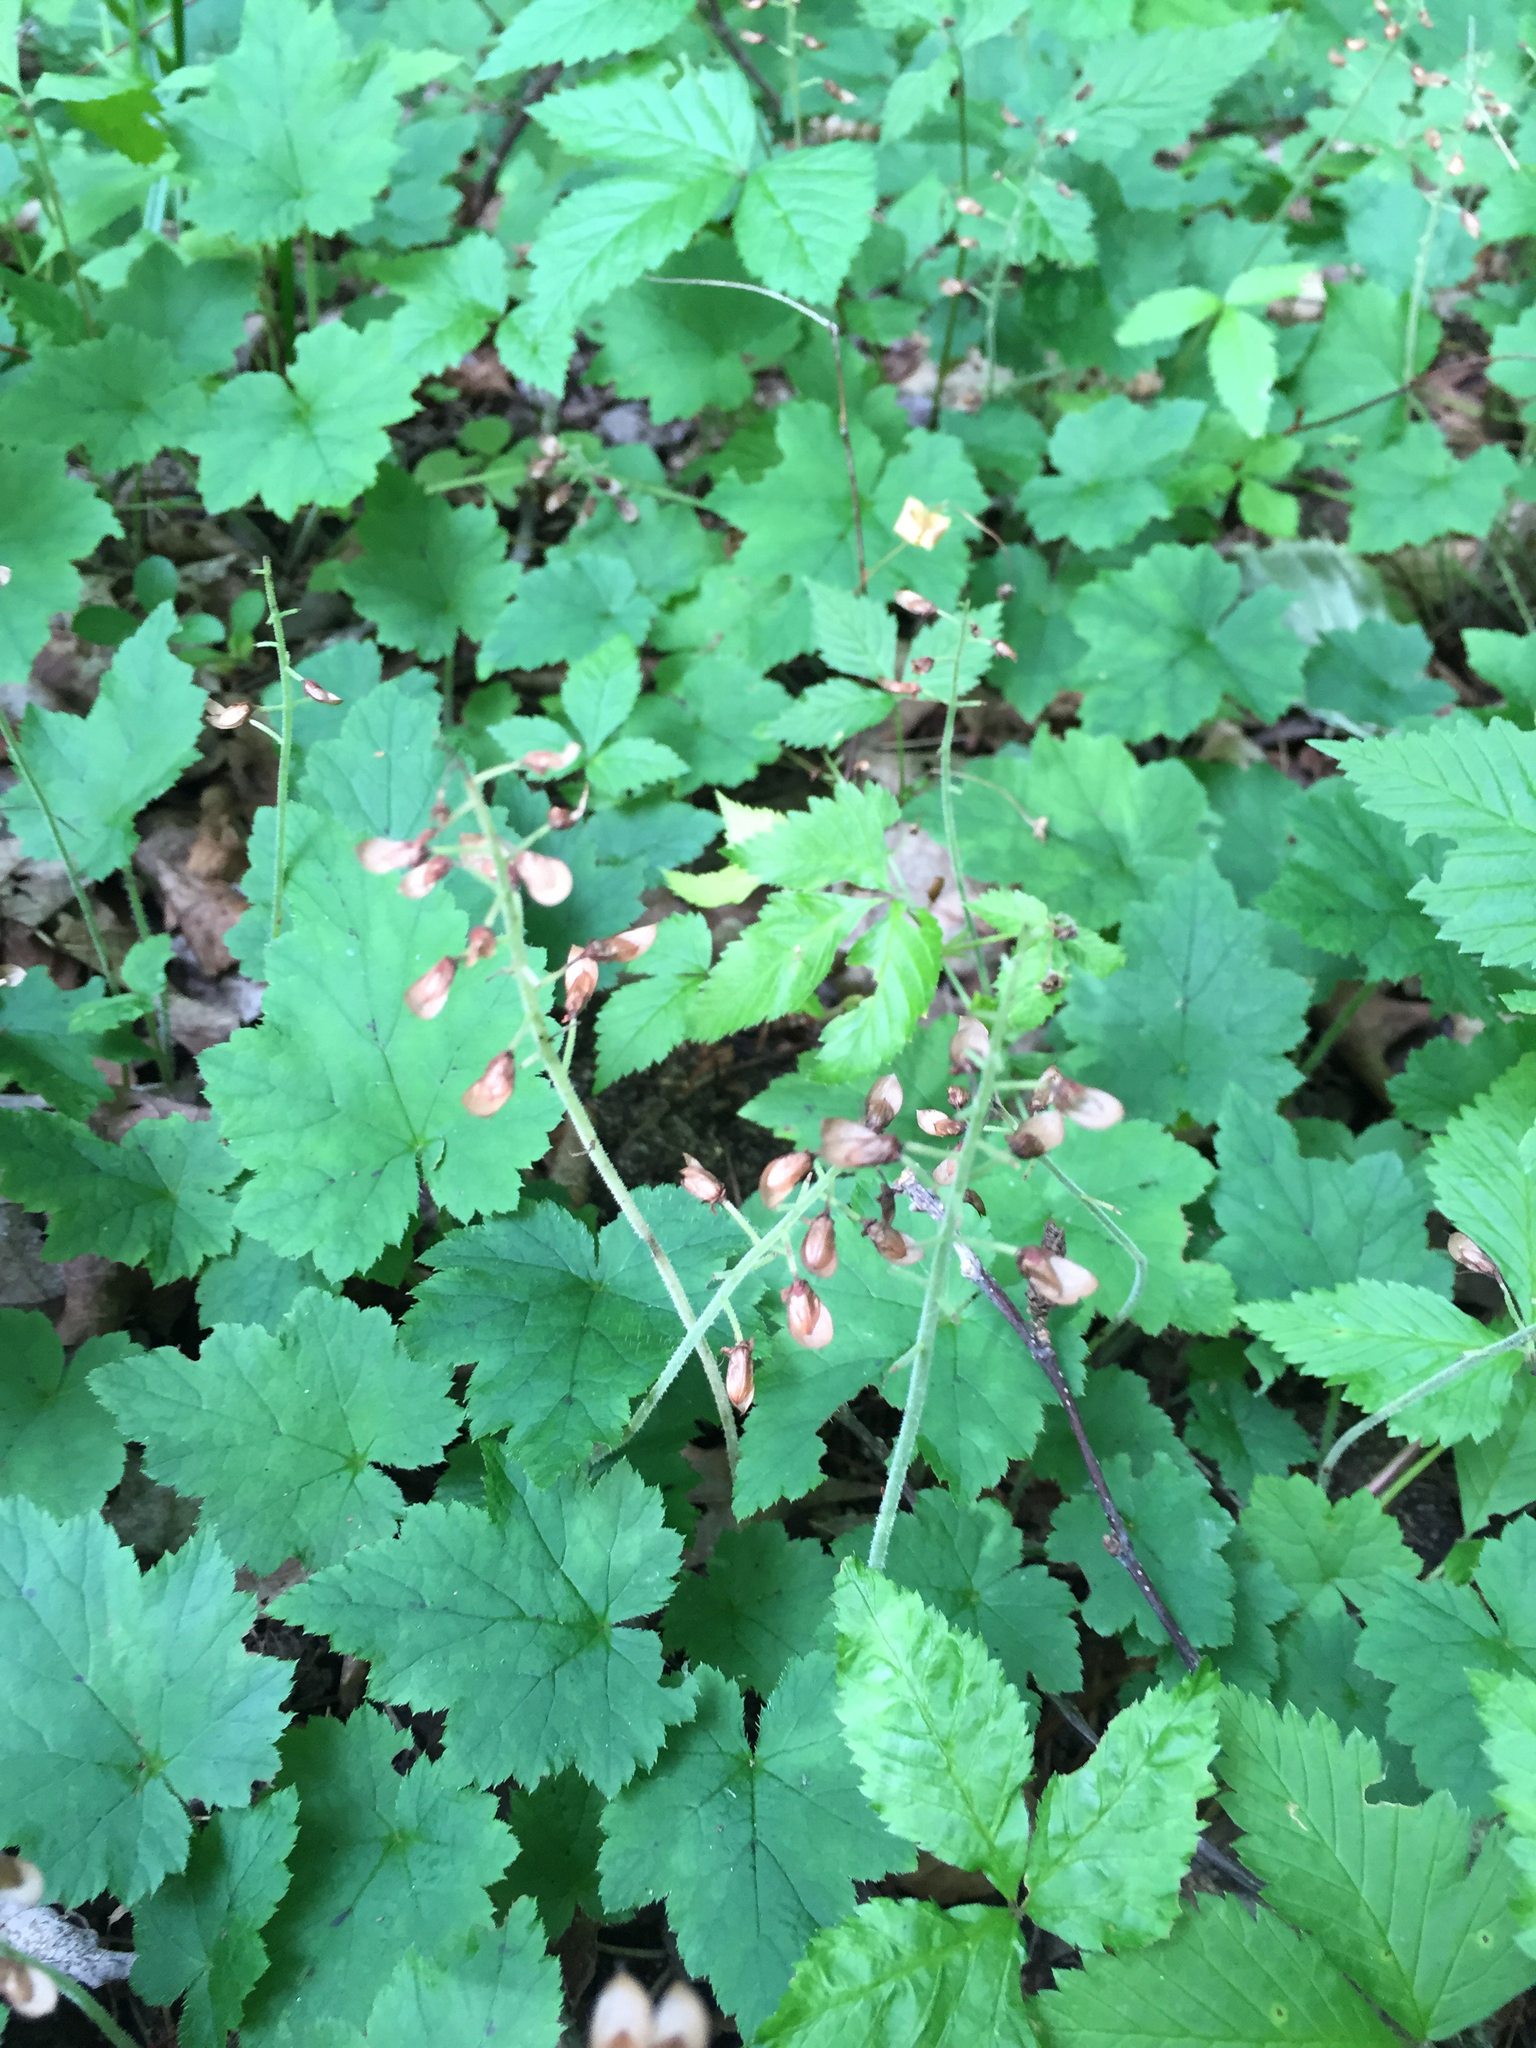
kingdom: Plantae
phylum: Tracheophyta
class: Magnoliopsida
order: Saxifragales
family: Saxifragaceae
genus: Tiarella
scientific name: Tiarella stolonifera
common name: Stoloniferous foamflower
